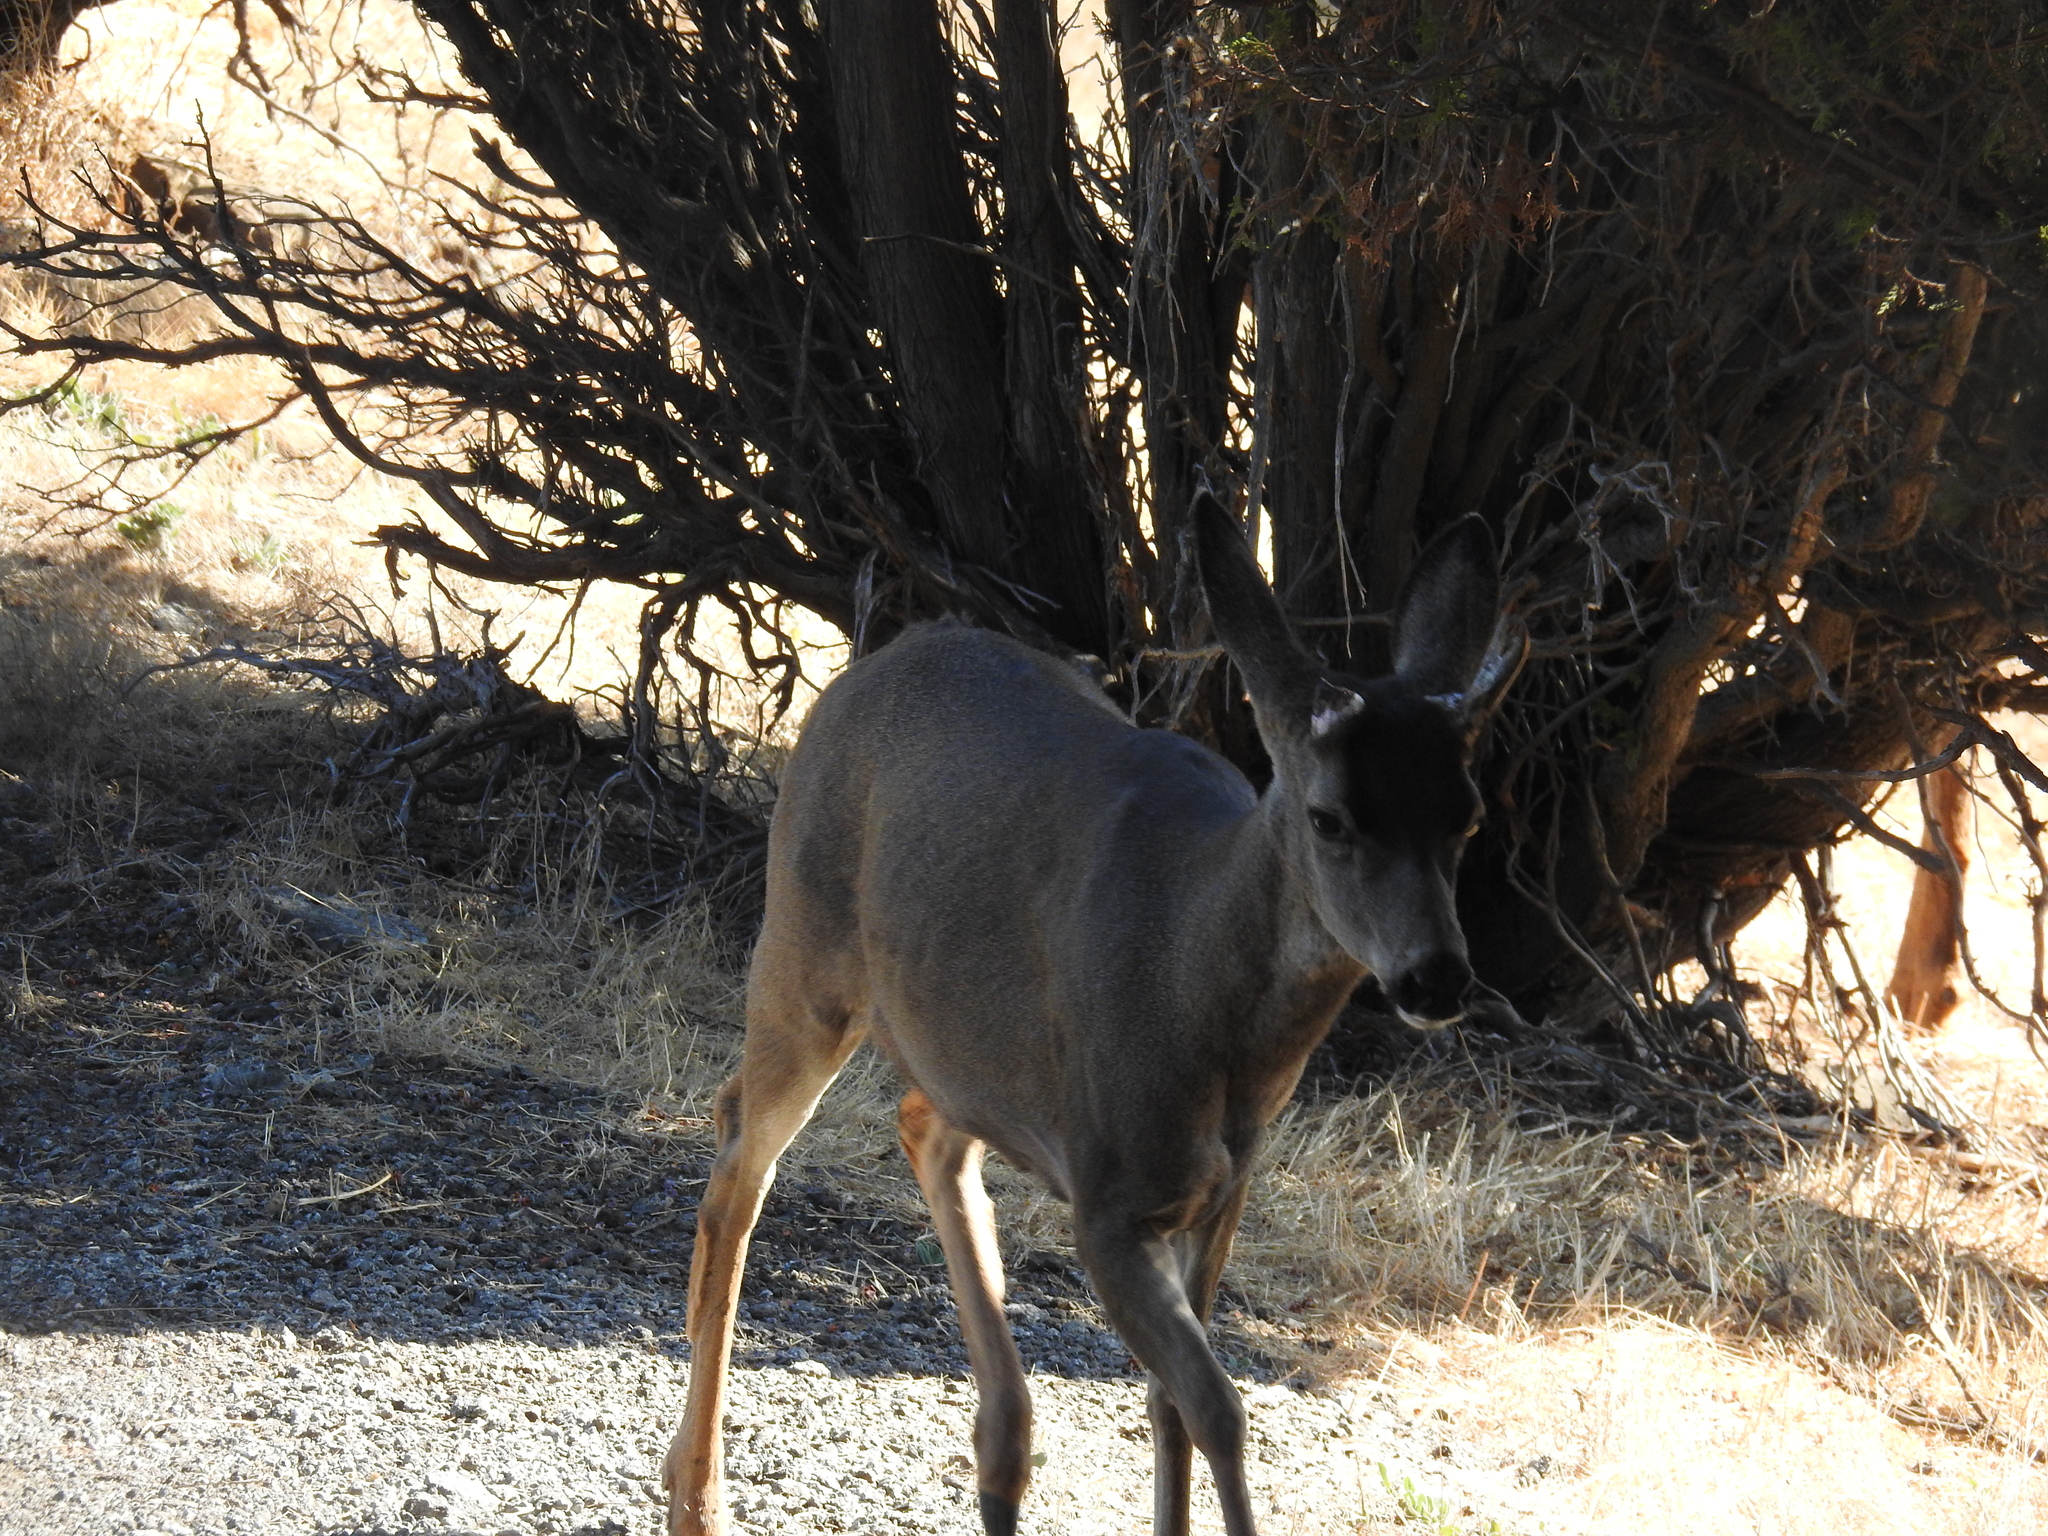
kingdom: Animalia
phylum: Chordata
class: Mammalia
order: Artiodactyla
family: Cervidae
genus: Odocoileus
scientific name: Odocoileus hemionus
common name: Mule deer
